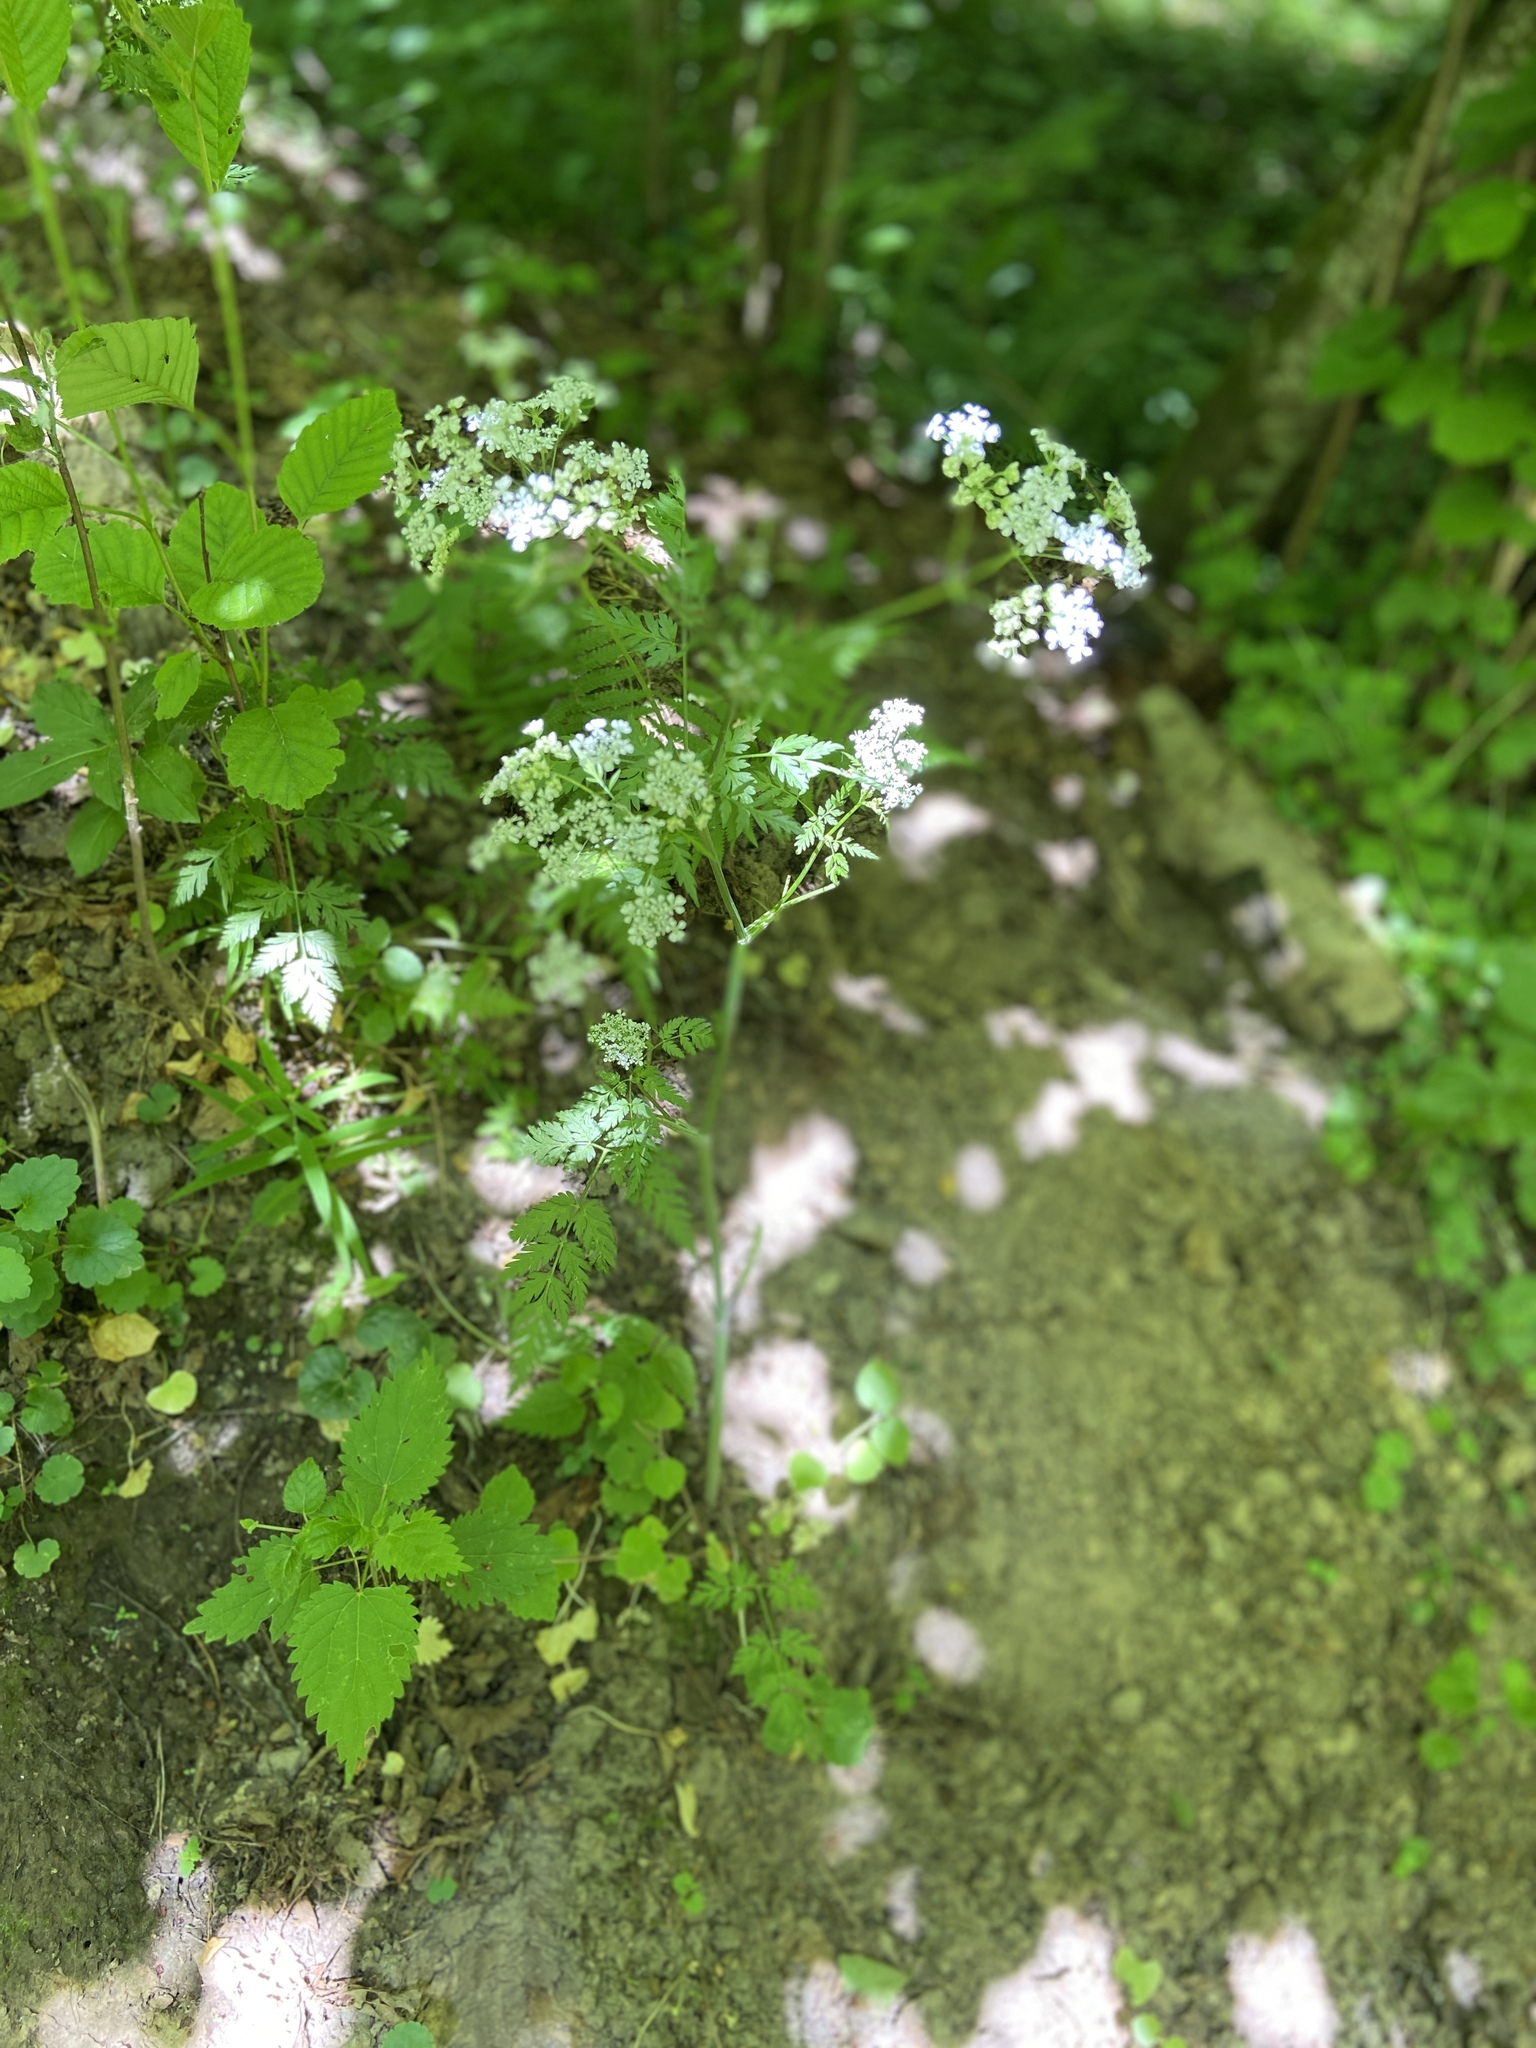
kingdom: Plantae
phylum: Tracheophyta
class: Magnoliopsida
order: Apiales
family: Apiaceae
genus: Anthriscus
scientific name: Anthriscus sylvestris
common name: Cow parsley
